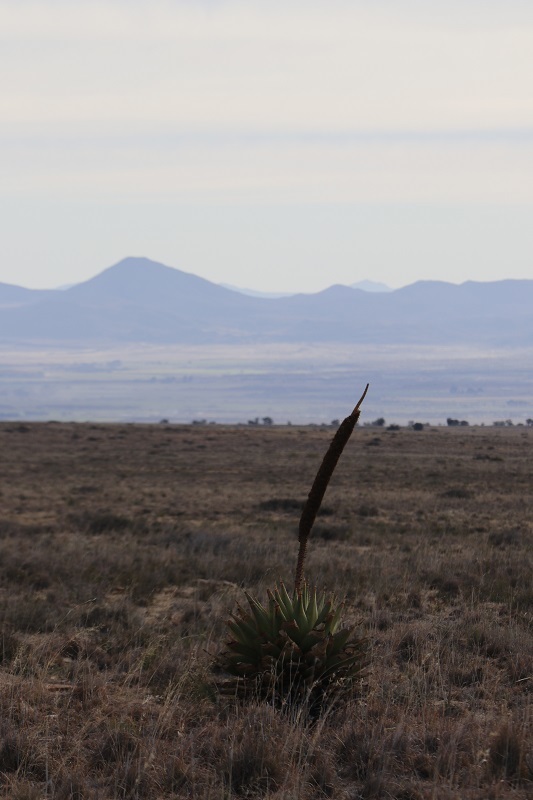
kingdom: Plantae
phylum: Tracheophyta
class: Liliopsida
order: Asparagales
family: Asphodelaceae
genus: Aloe
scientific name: Aloe broomii
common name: Berg alwyn
